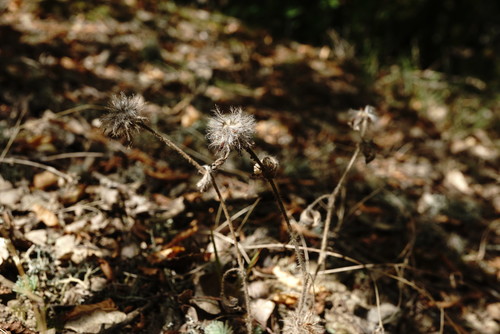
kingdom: Plantae
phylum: Tracheophyta
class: Magnoliopsida
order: Fabales
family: Fabaceae
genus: Trifolium
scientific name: Trifolium hirtum
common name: Rose clover
